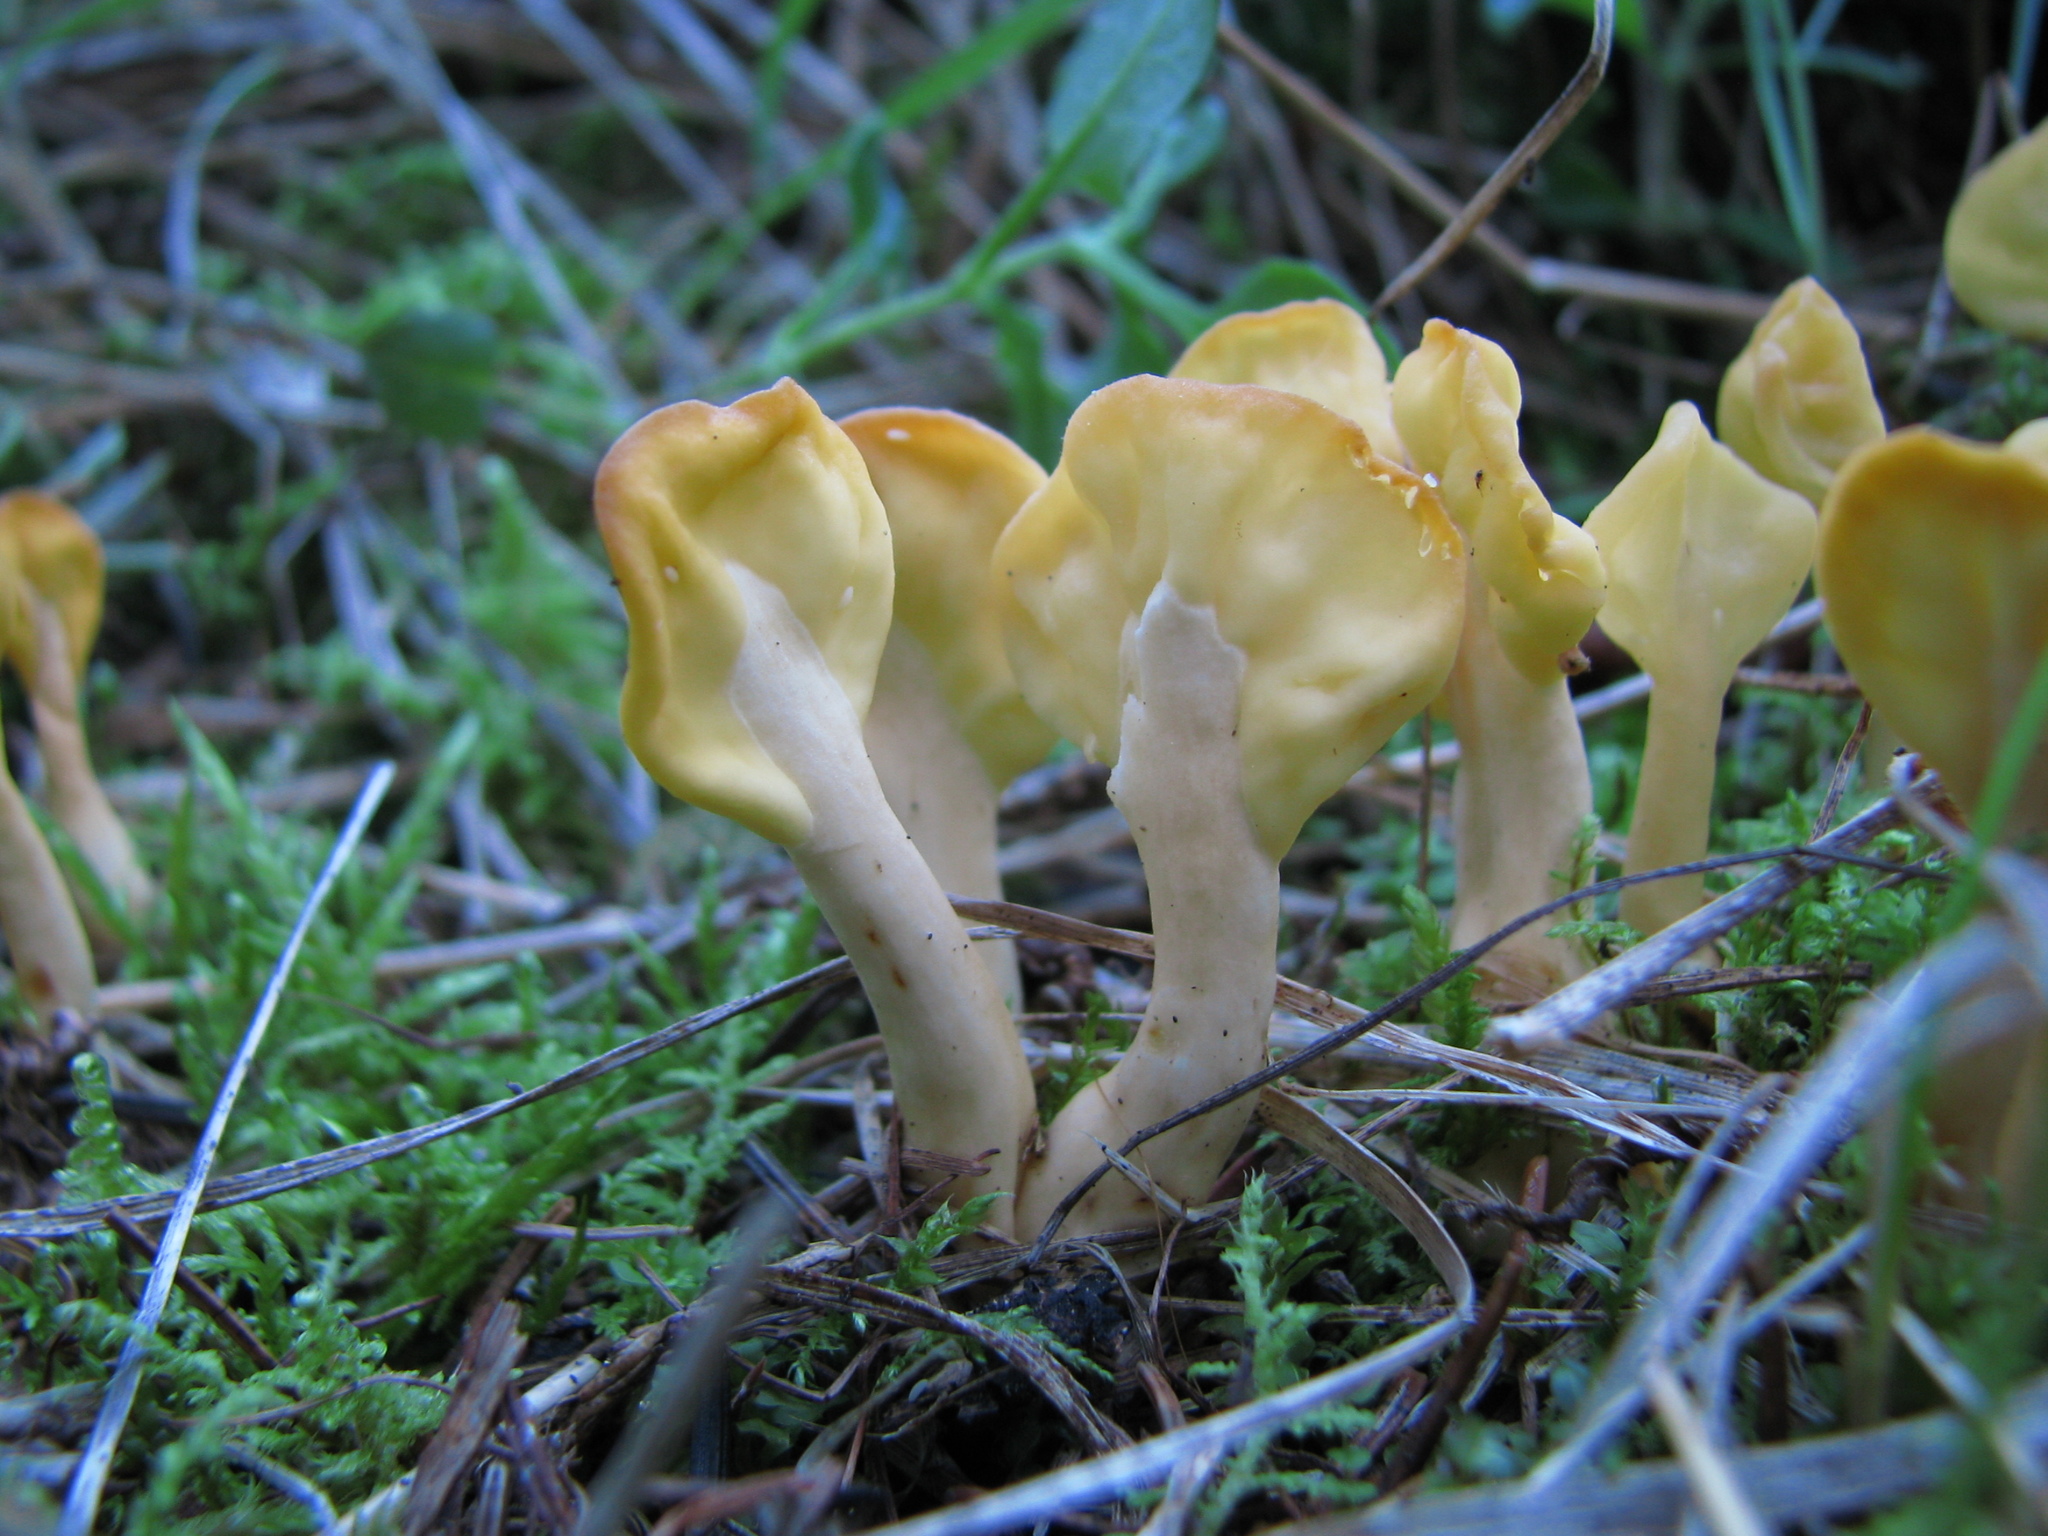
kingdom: Fungi
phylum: Ascomycota
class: Leotiomycetes
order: Rhytismatales
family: Cudoniaceae
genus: Spathularia
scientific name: Spathularia flavida
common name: Yellow fan
